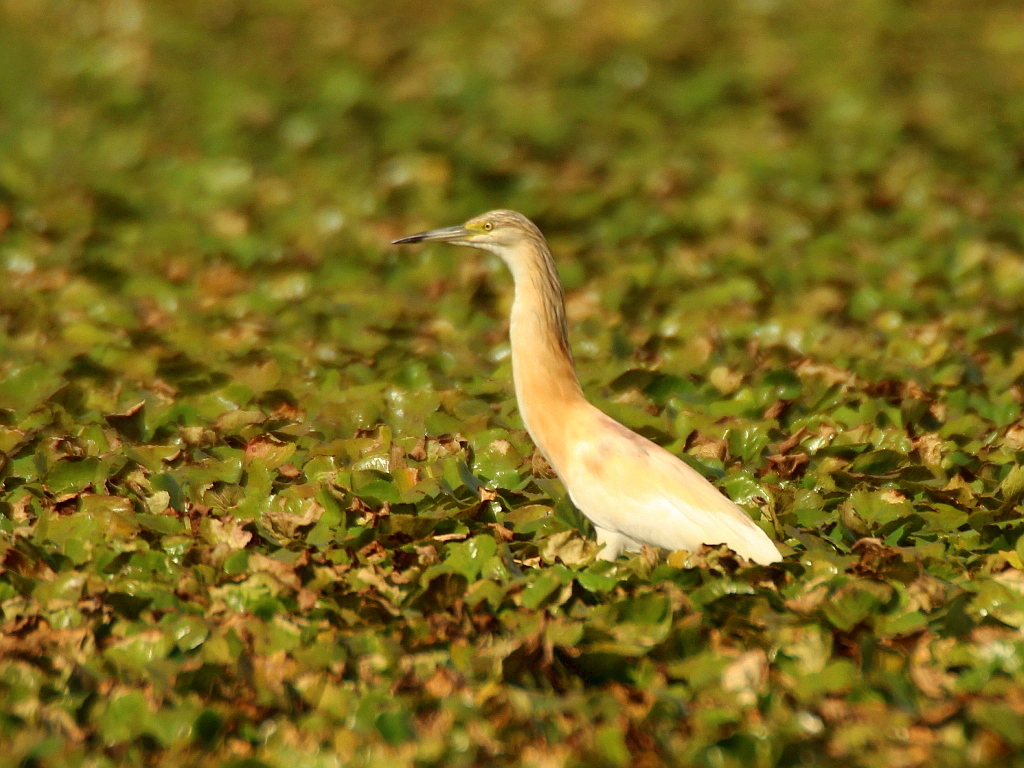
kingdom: Animalia
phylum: Chordata
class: Aves
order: Pelecaniformes
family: Ardeidae
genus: Ardeola
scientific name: Ardeola ralloides
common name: Squacco heron
